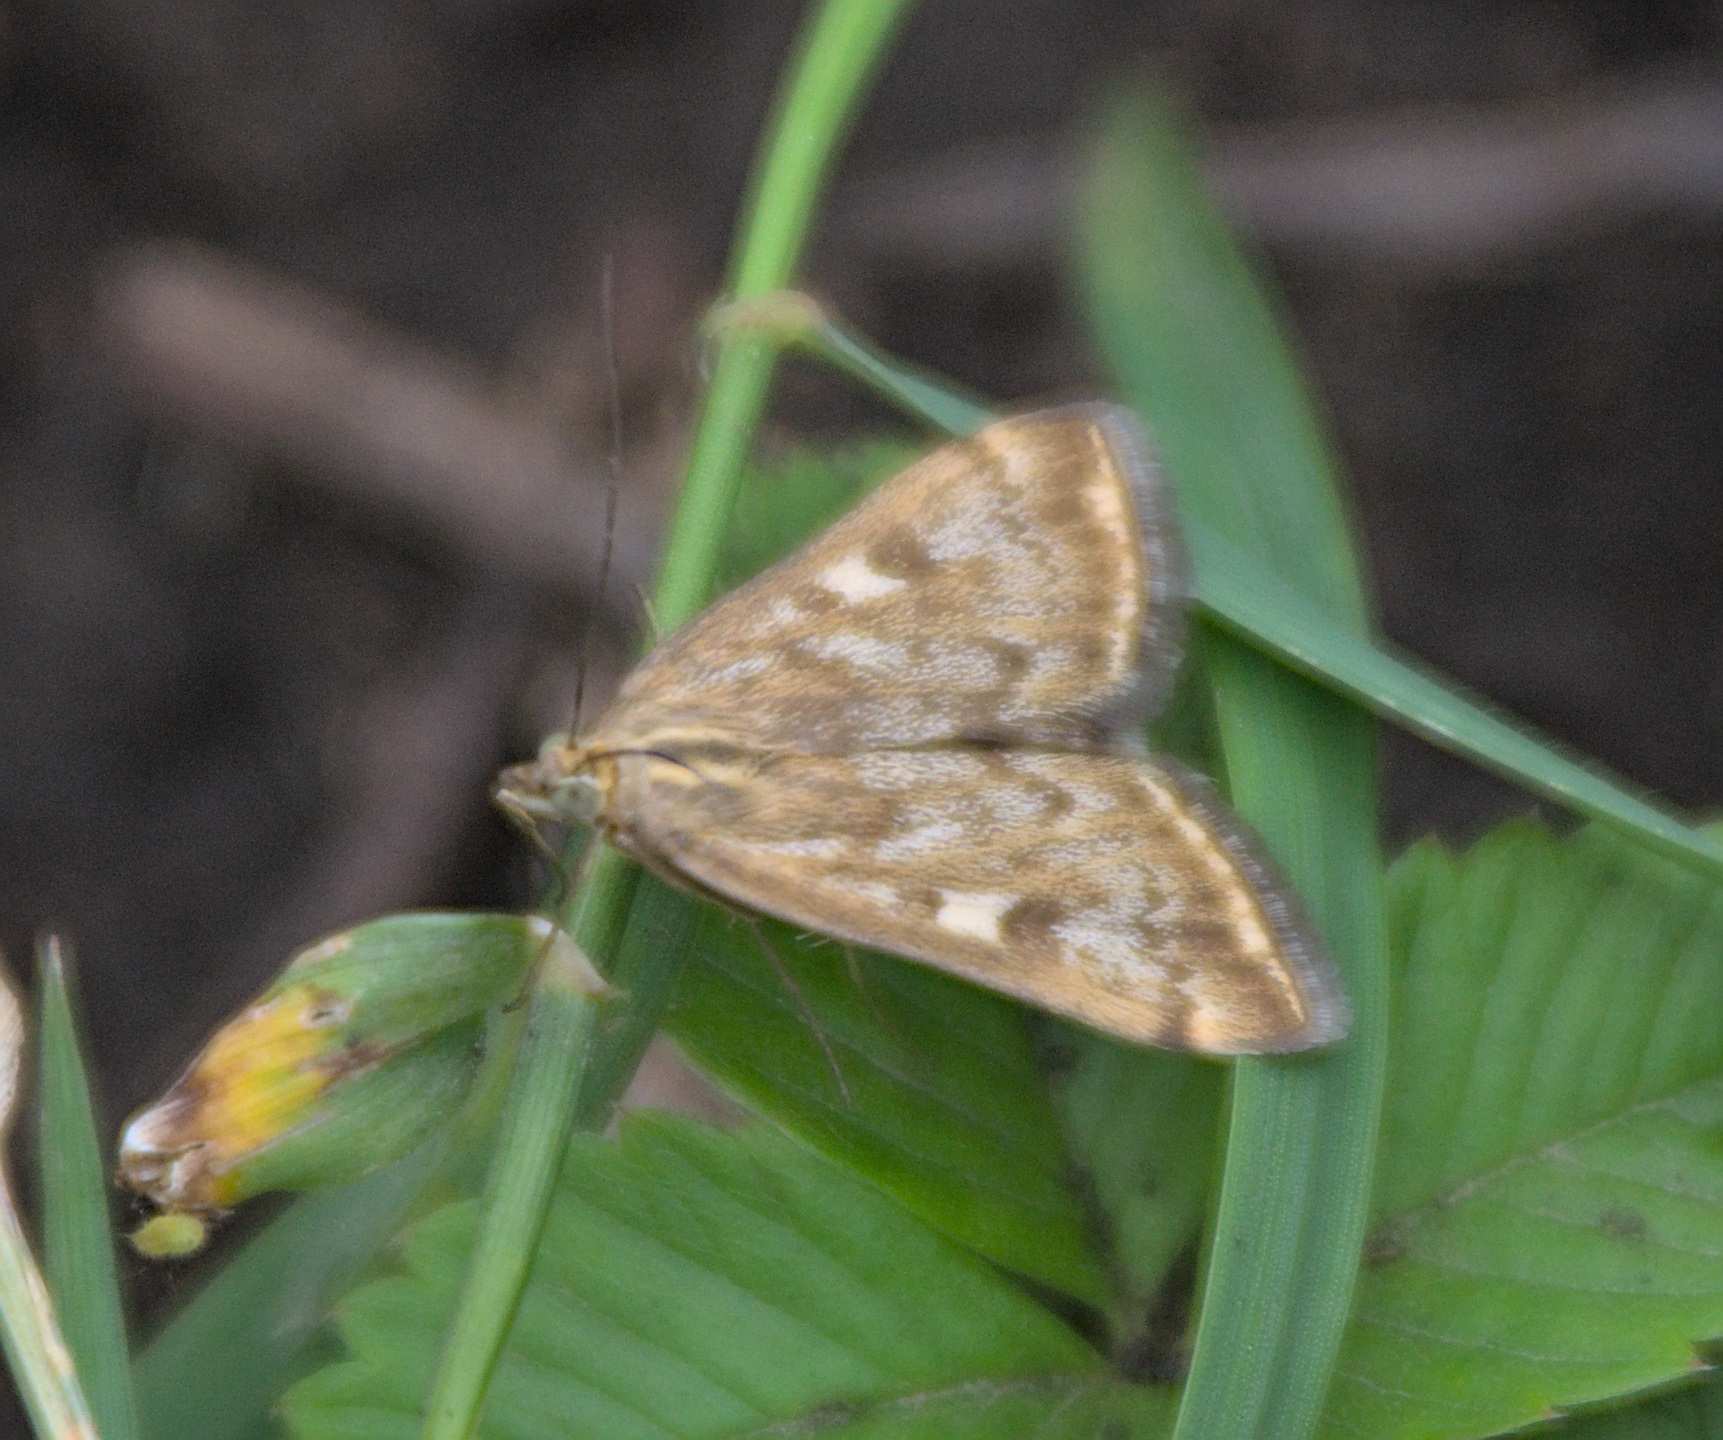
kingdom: Animalia
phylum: Arthropoda
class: Insecta
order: Lepidoptera
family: Crambidae
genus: Loxostege
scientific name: Loxostege sticticalis
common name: Crambid moth
